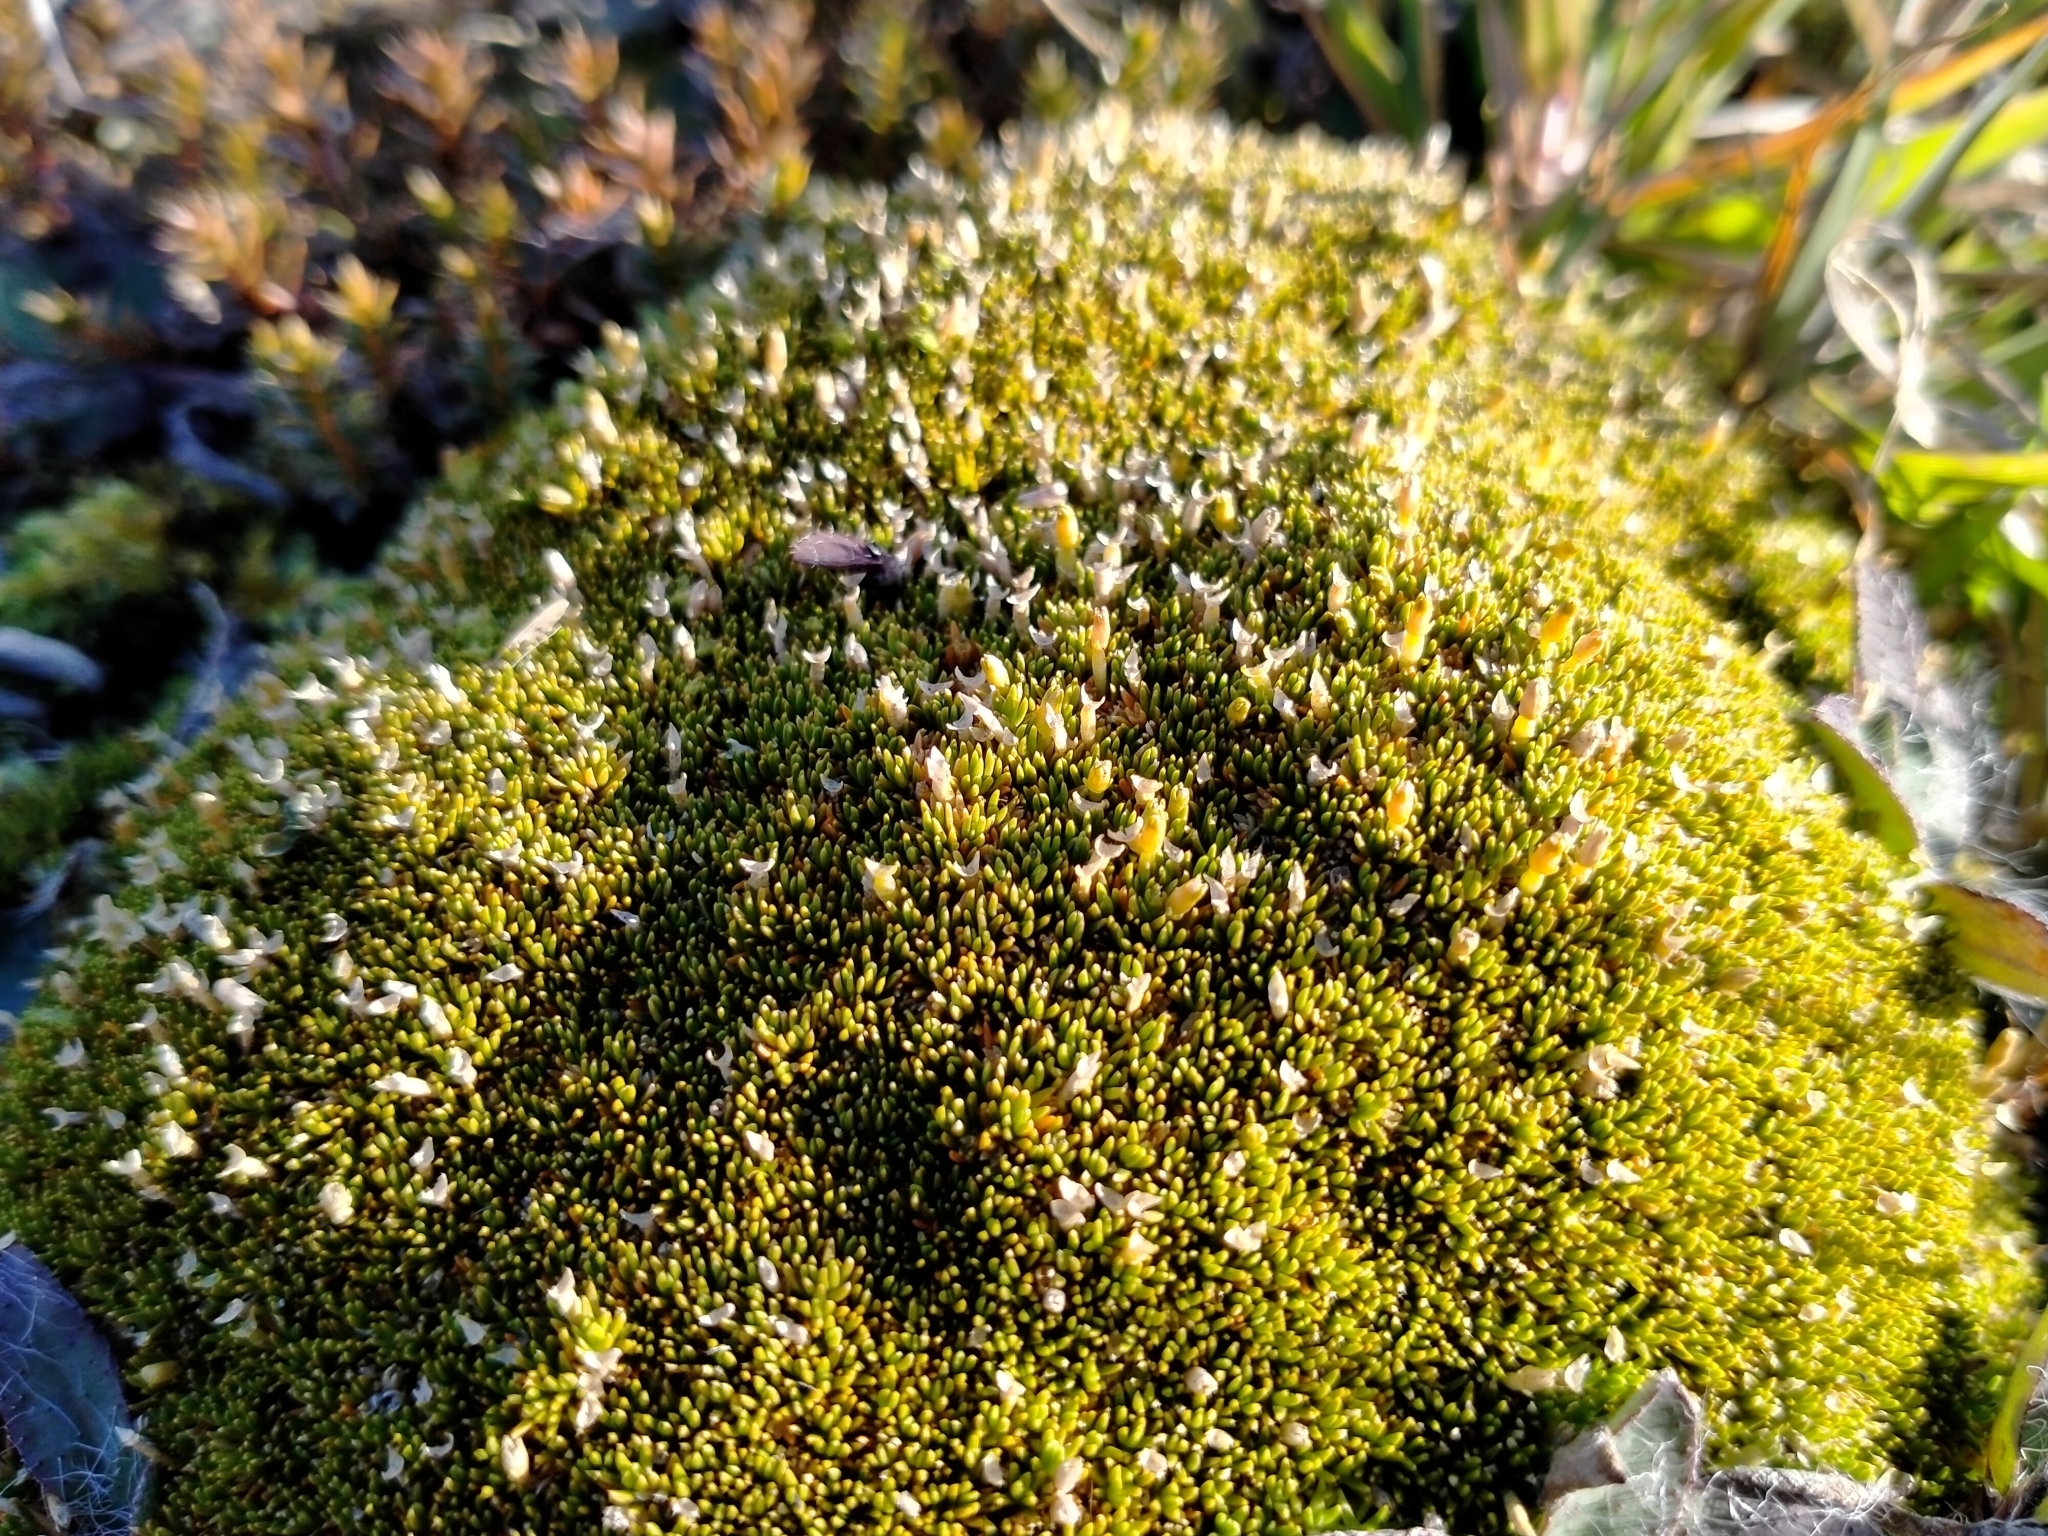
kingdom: Plantae
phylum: Tracheophyta
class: Magnoliopsida
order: Caryophyllales
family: Caryophyllaceae
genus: Scleranthus
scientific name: Scleranthus uniflorus
